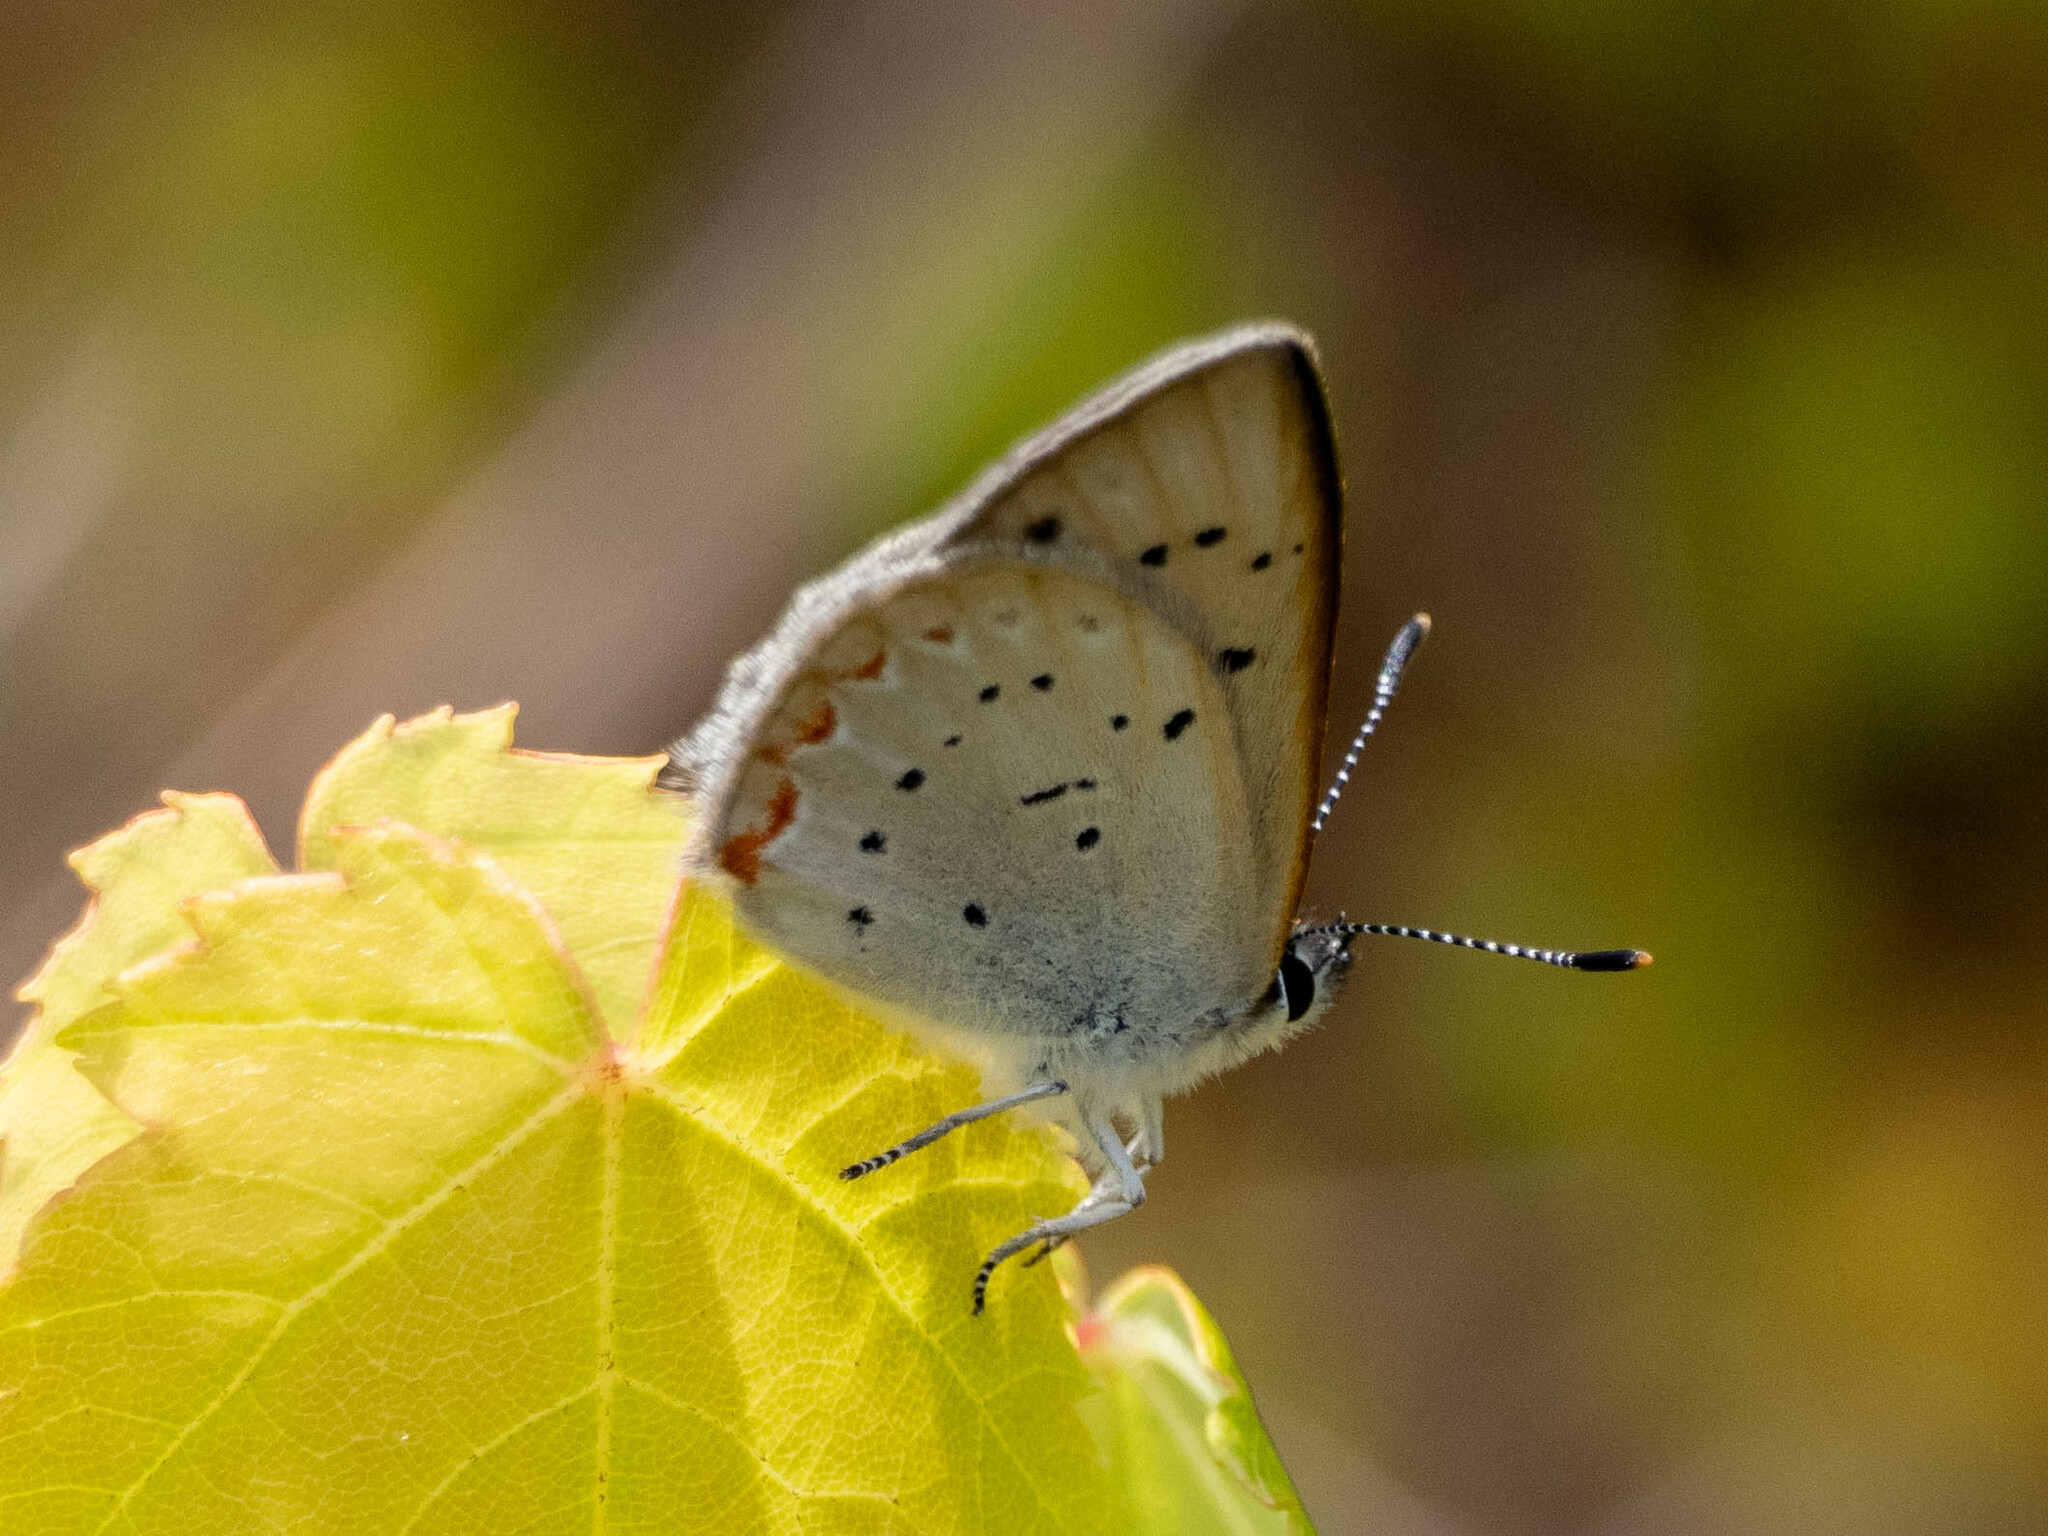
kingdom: Animalia
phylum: Arthropoda
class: Insecta
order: Lepidoptera
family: Lycaenidae
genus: Tharsalea
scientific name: Tharsalea epixanthe
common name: Bog copper
